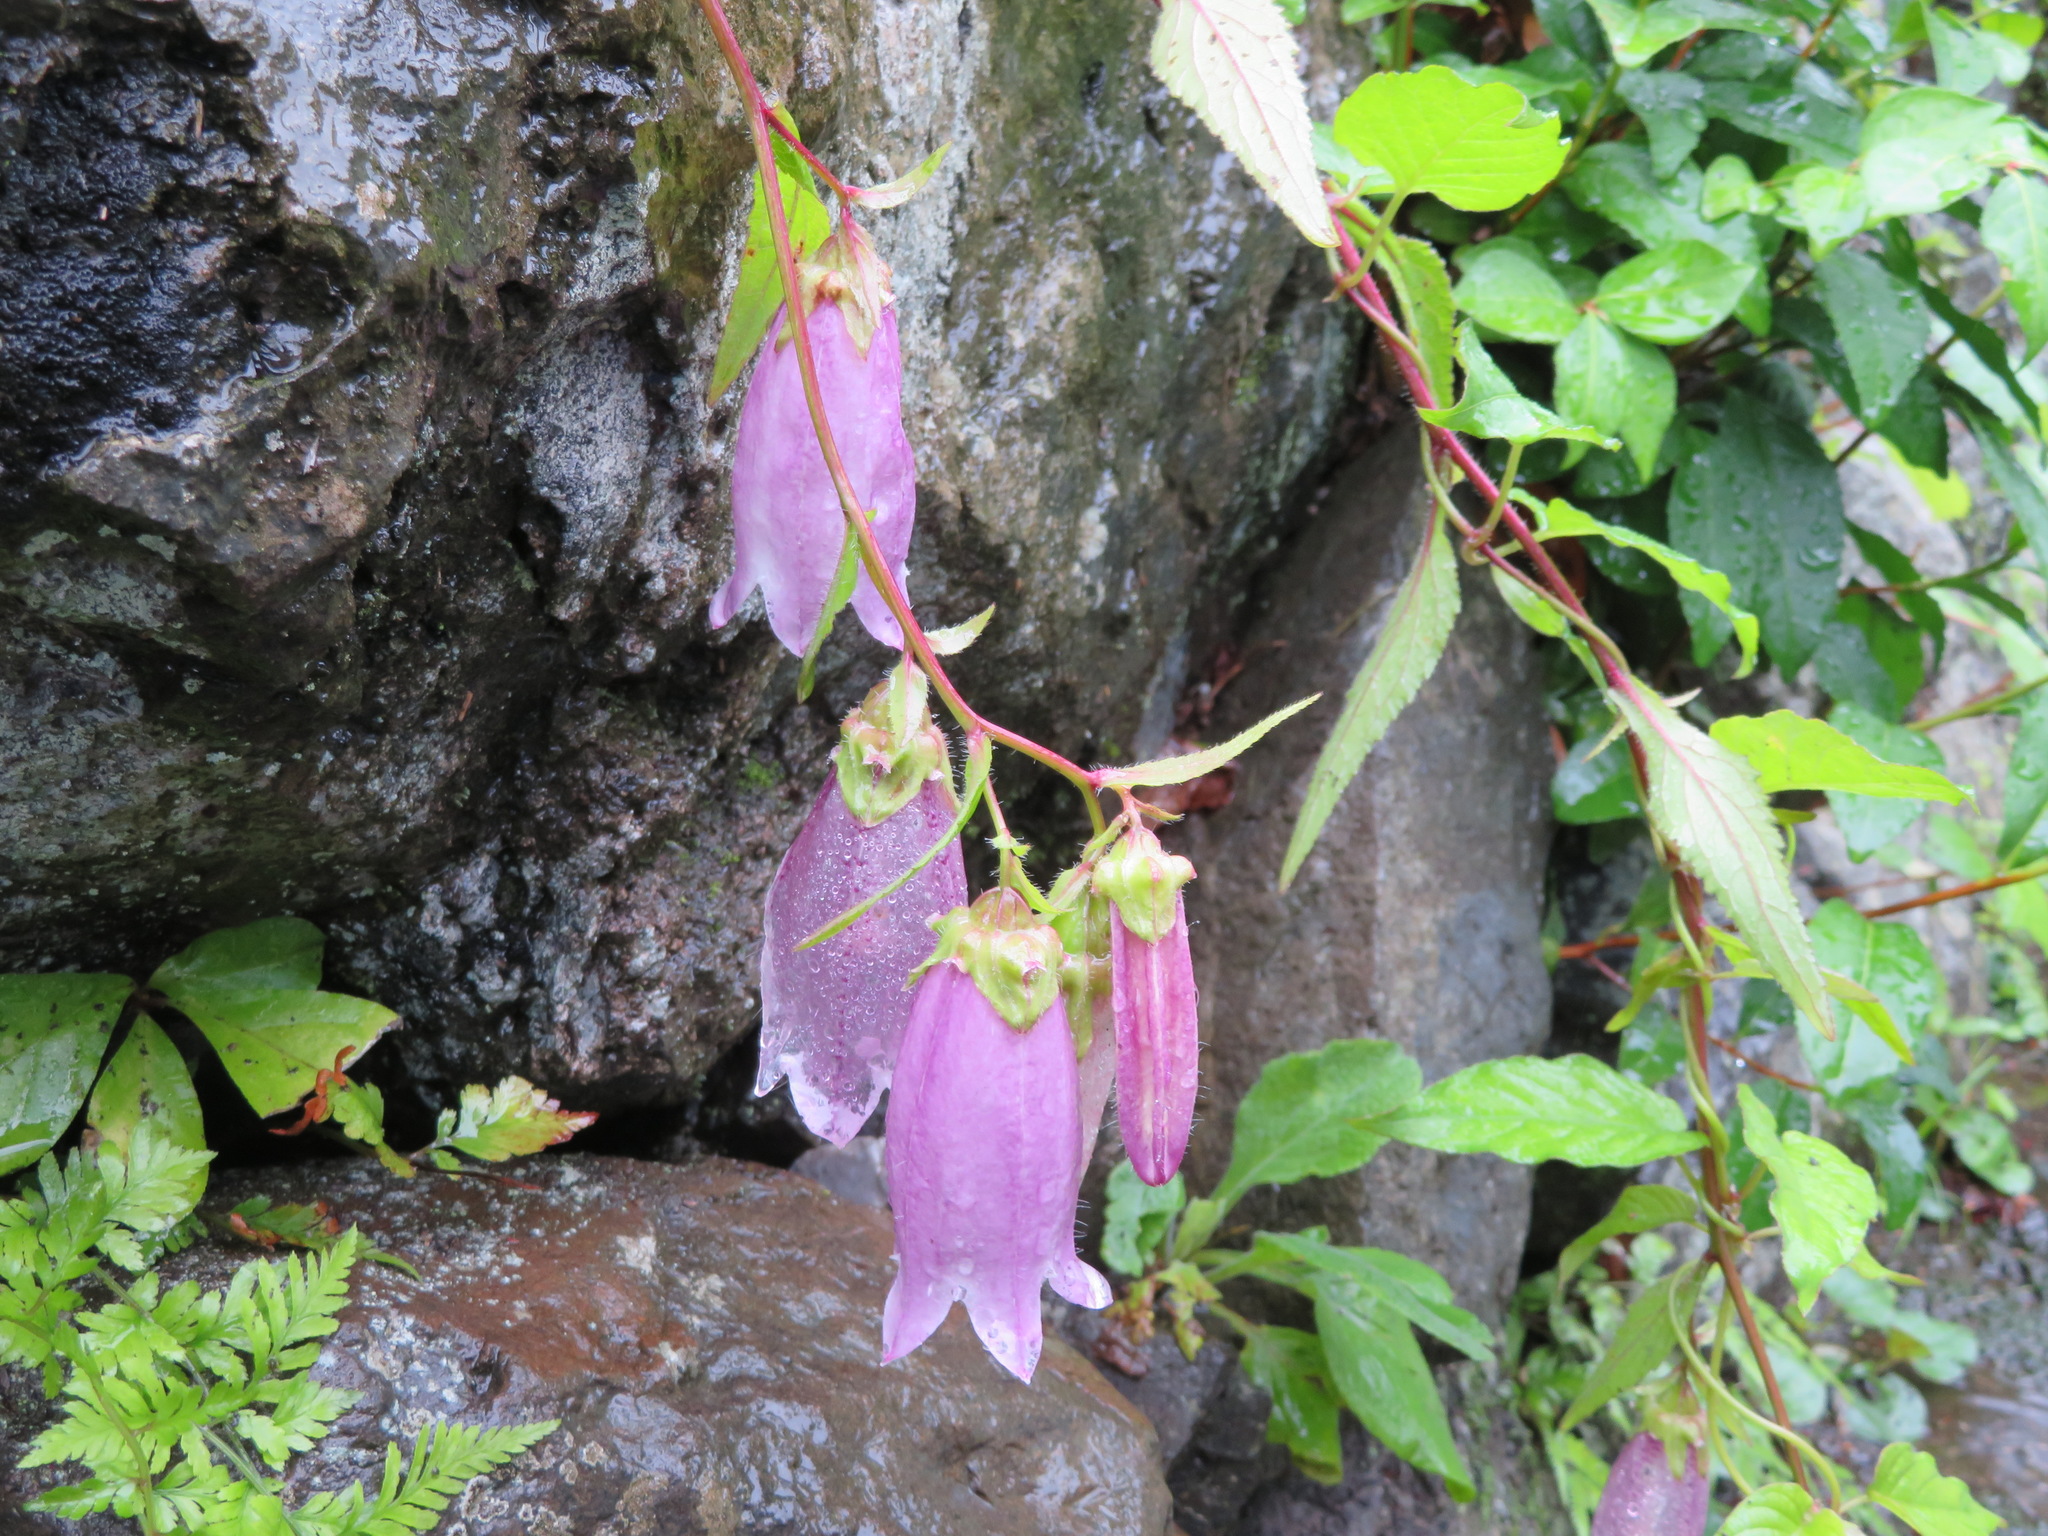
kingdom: Plantae
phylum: Tracheophyta
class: Magnoliopsida
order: Asterales
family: Campanulaceae
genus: Campanula
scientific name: Campanula punctata
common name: Spotted bellflower
